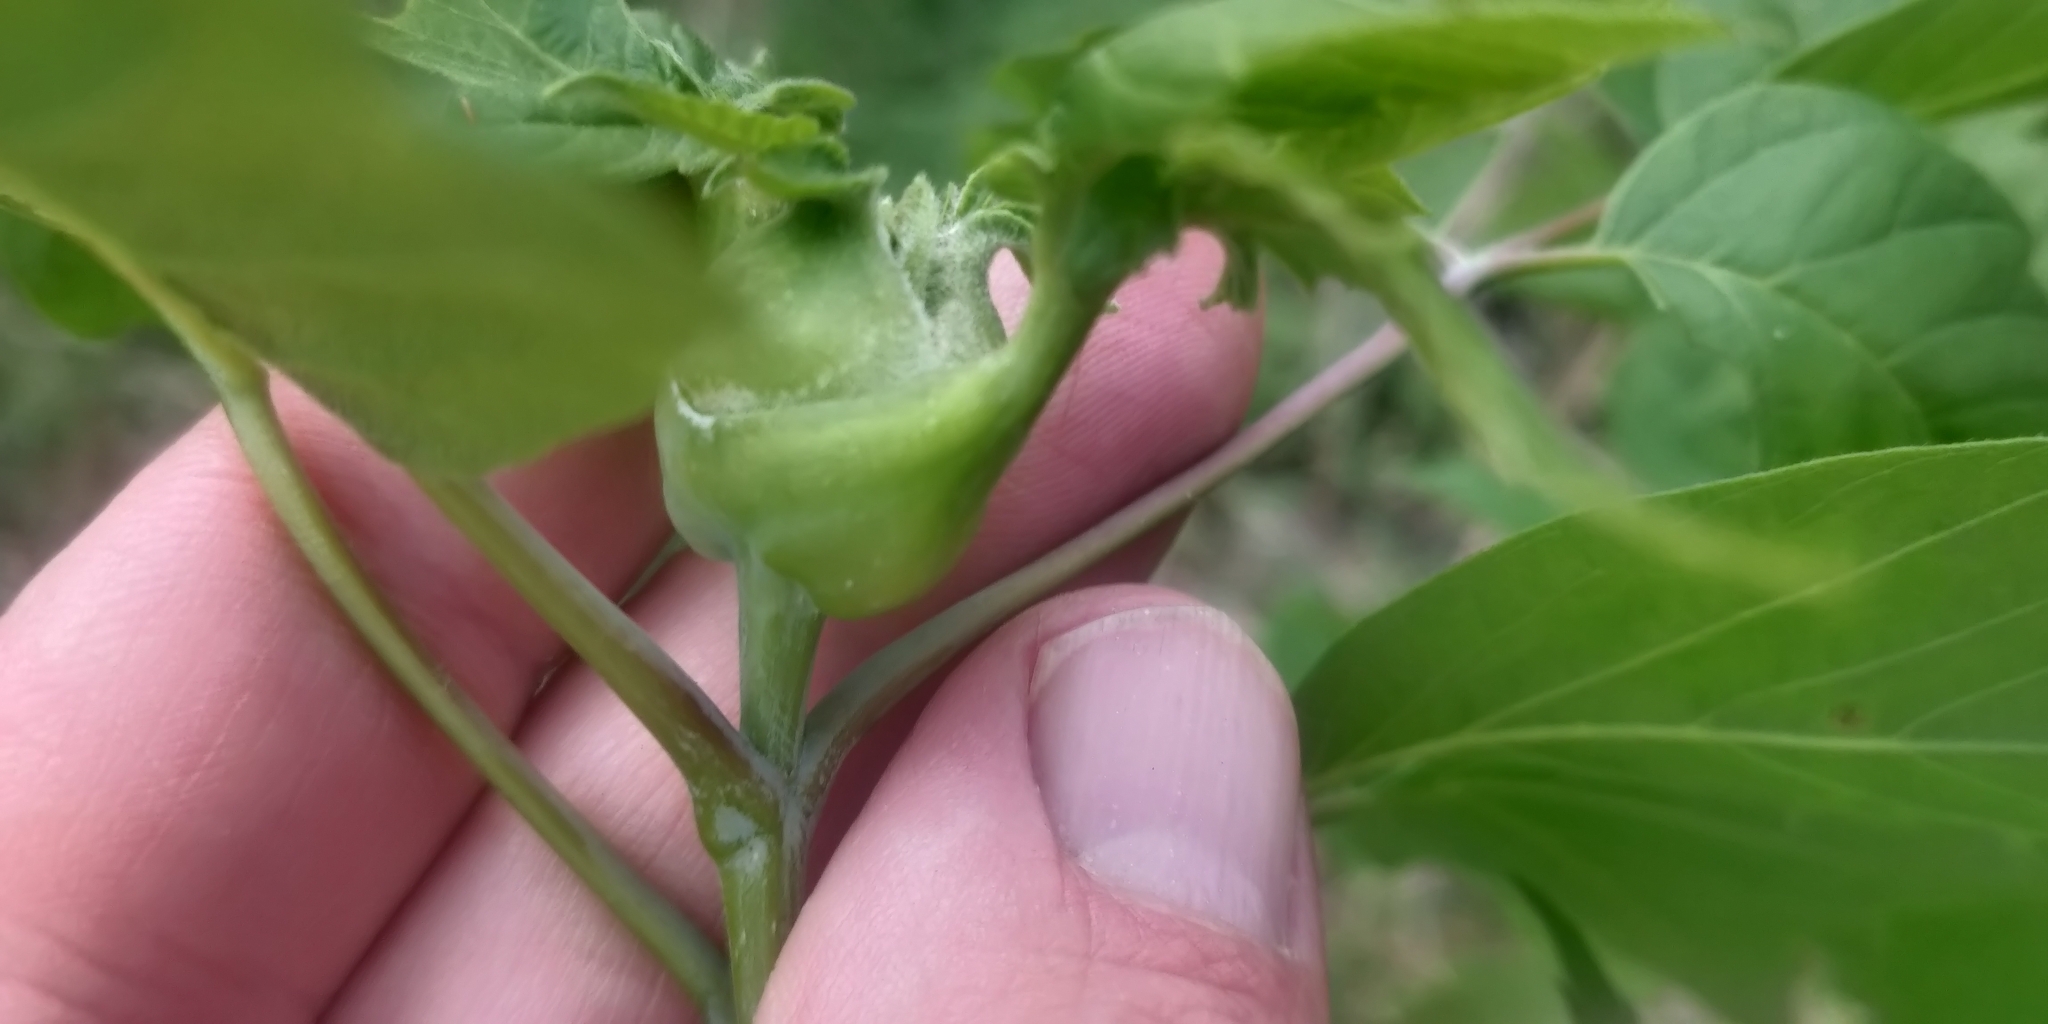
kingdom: Animalia
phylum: Arthropoda
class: Insecta
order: Diptera
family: Cecidomyiidae
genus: Contarinia
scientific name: Contarinia negundinis
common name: Boxelder budgall midge
